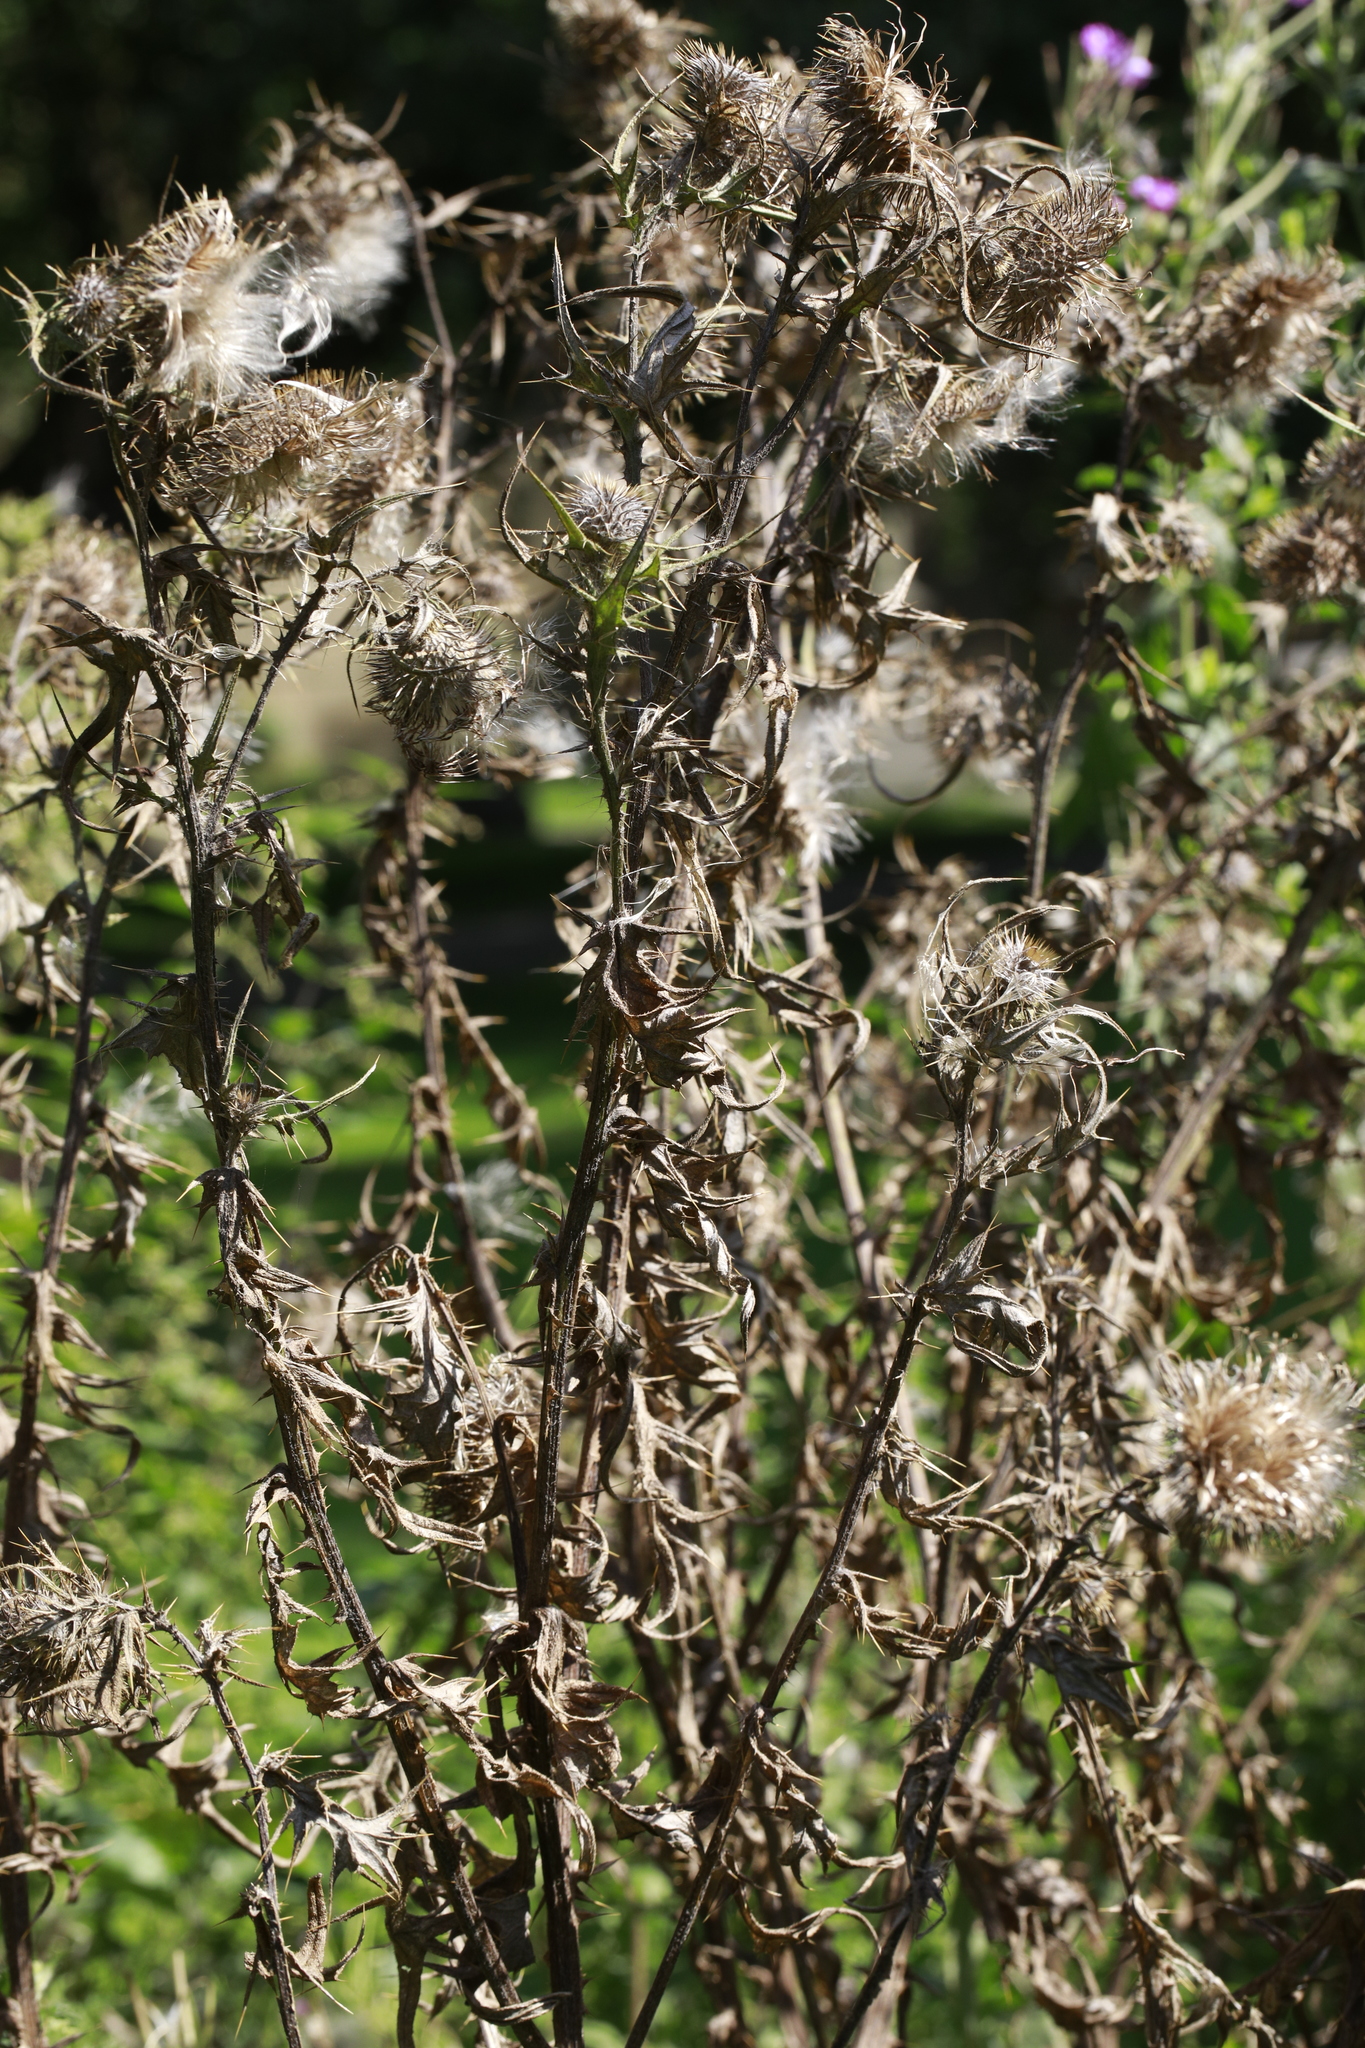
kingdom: Plantae
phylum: Tracheophyta
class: Magnoliopsida
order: Asterales
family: Asteraceae
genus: Cirsium
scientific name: Cirsium vulgare
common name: Bull thistle
